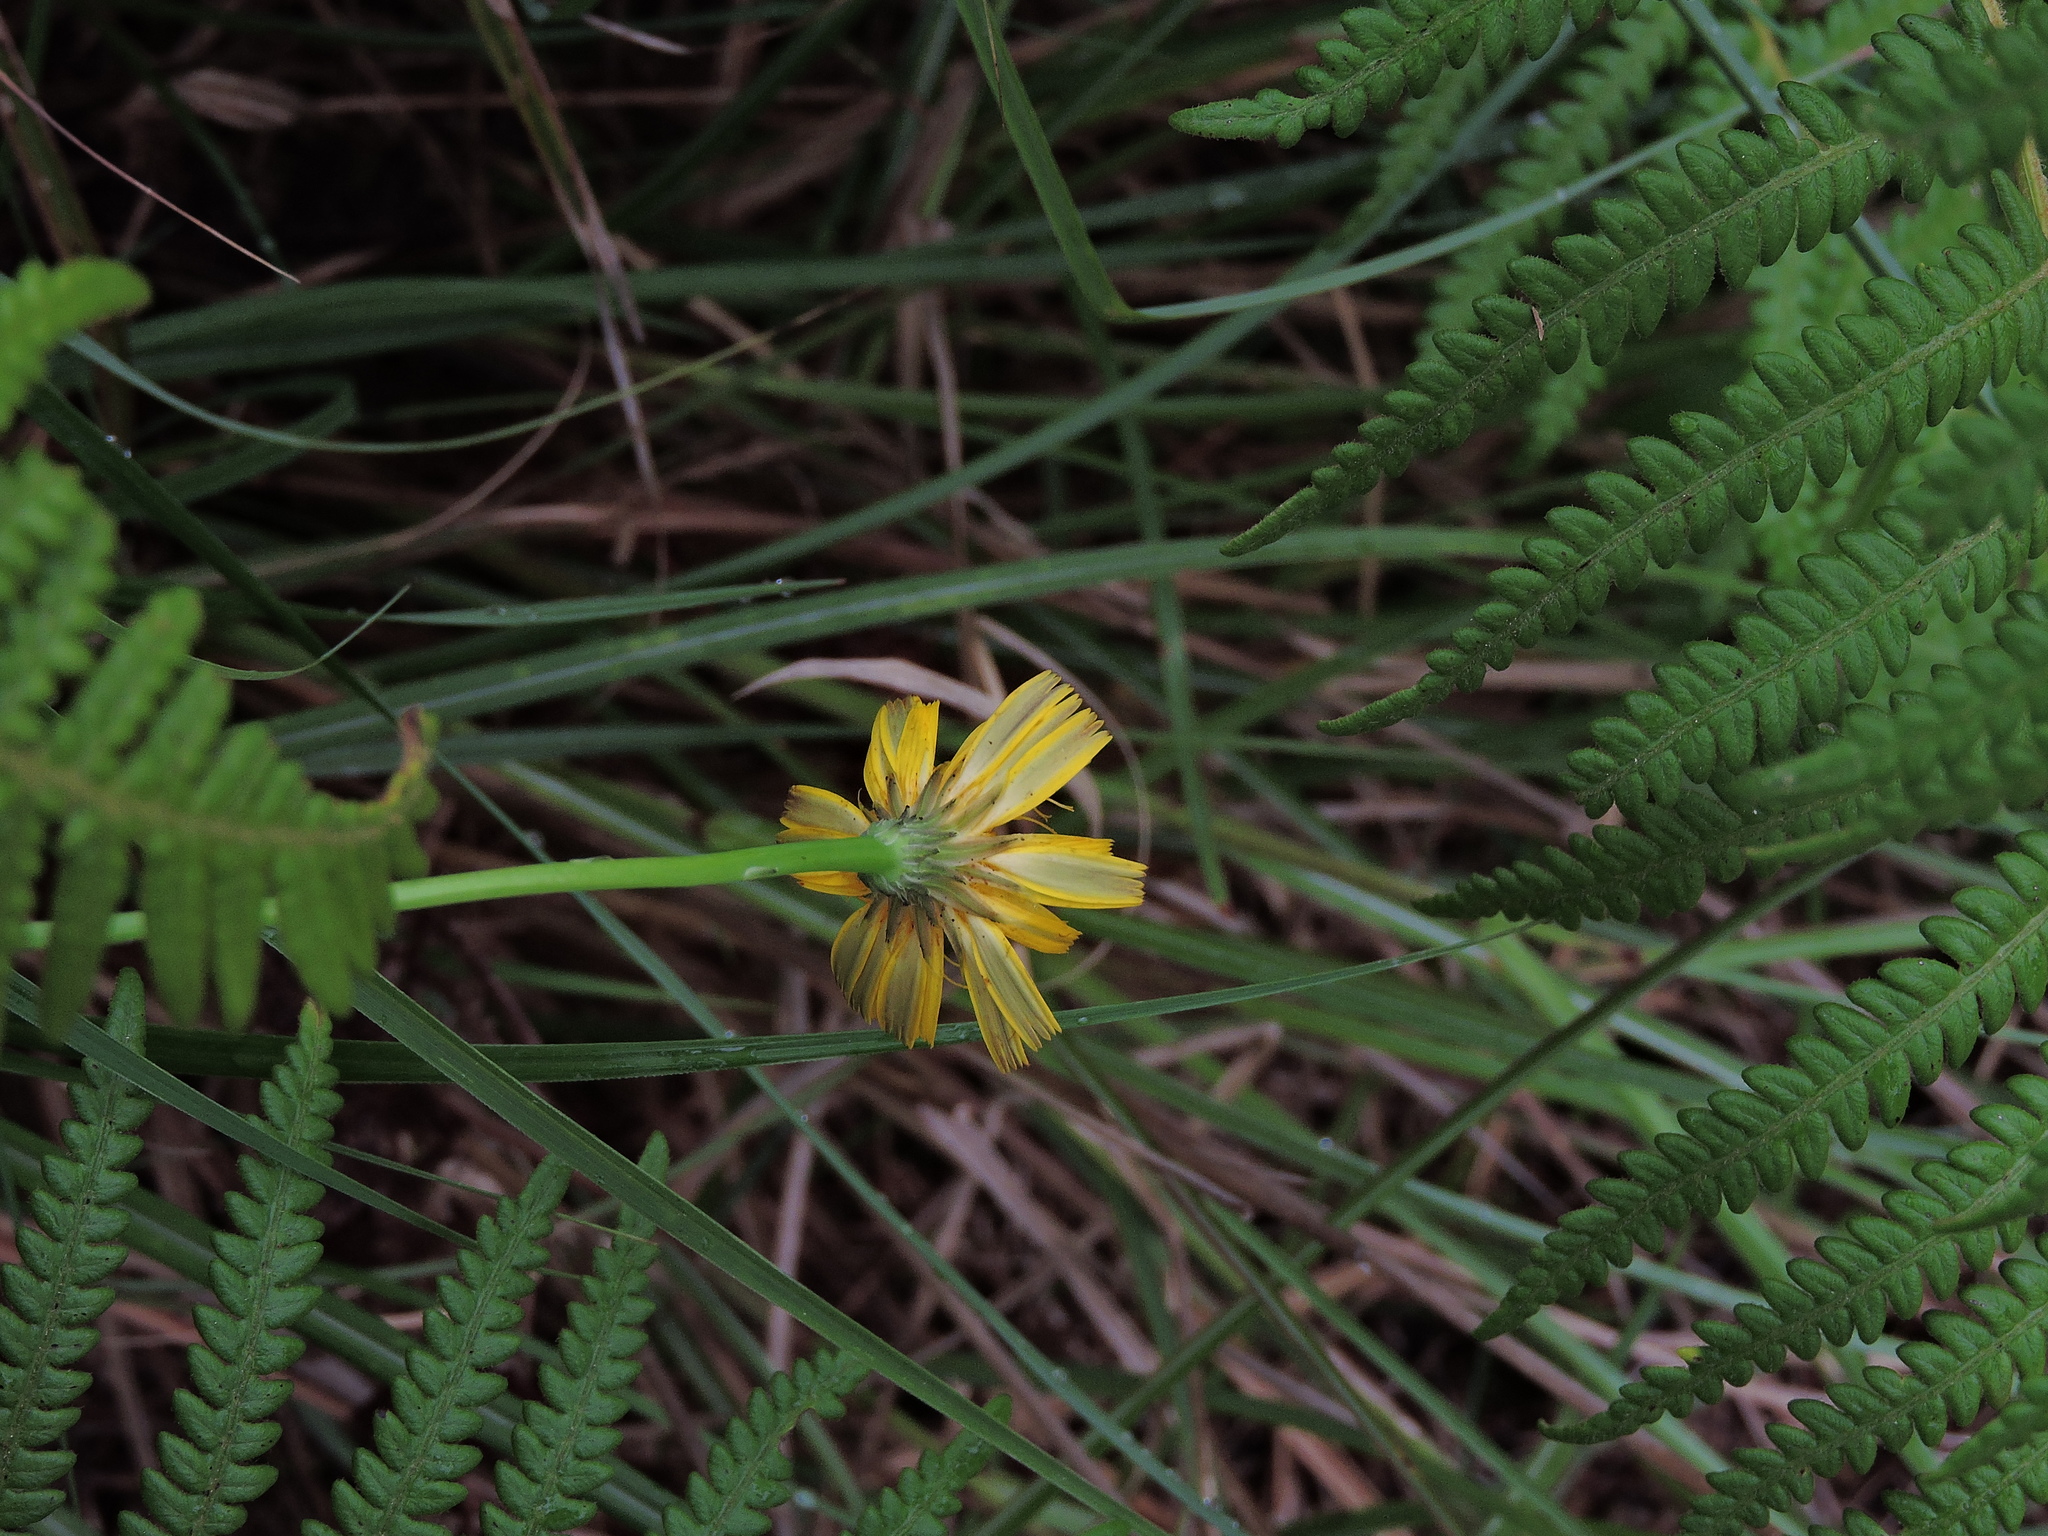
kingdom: Plantae
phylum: Tracheophyta
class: Magnoliopsida
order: Asterales
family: Asteraceae
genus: Hypochaeris
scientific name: Hypochaeris radicata
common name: Flatweed
